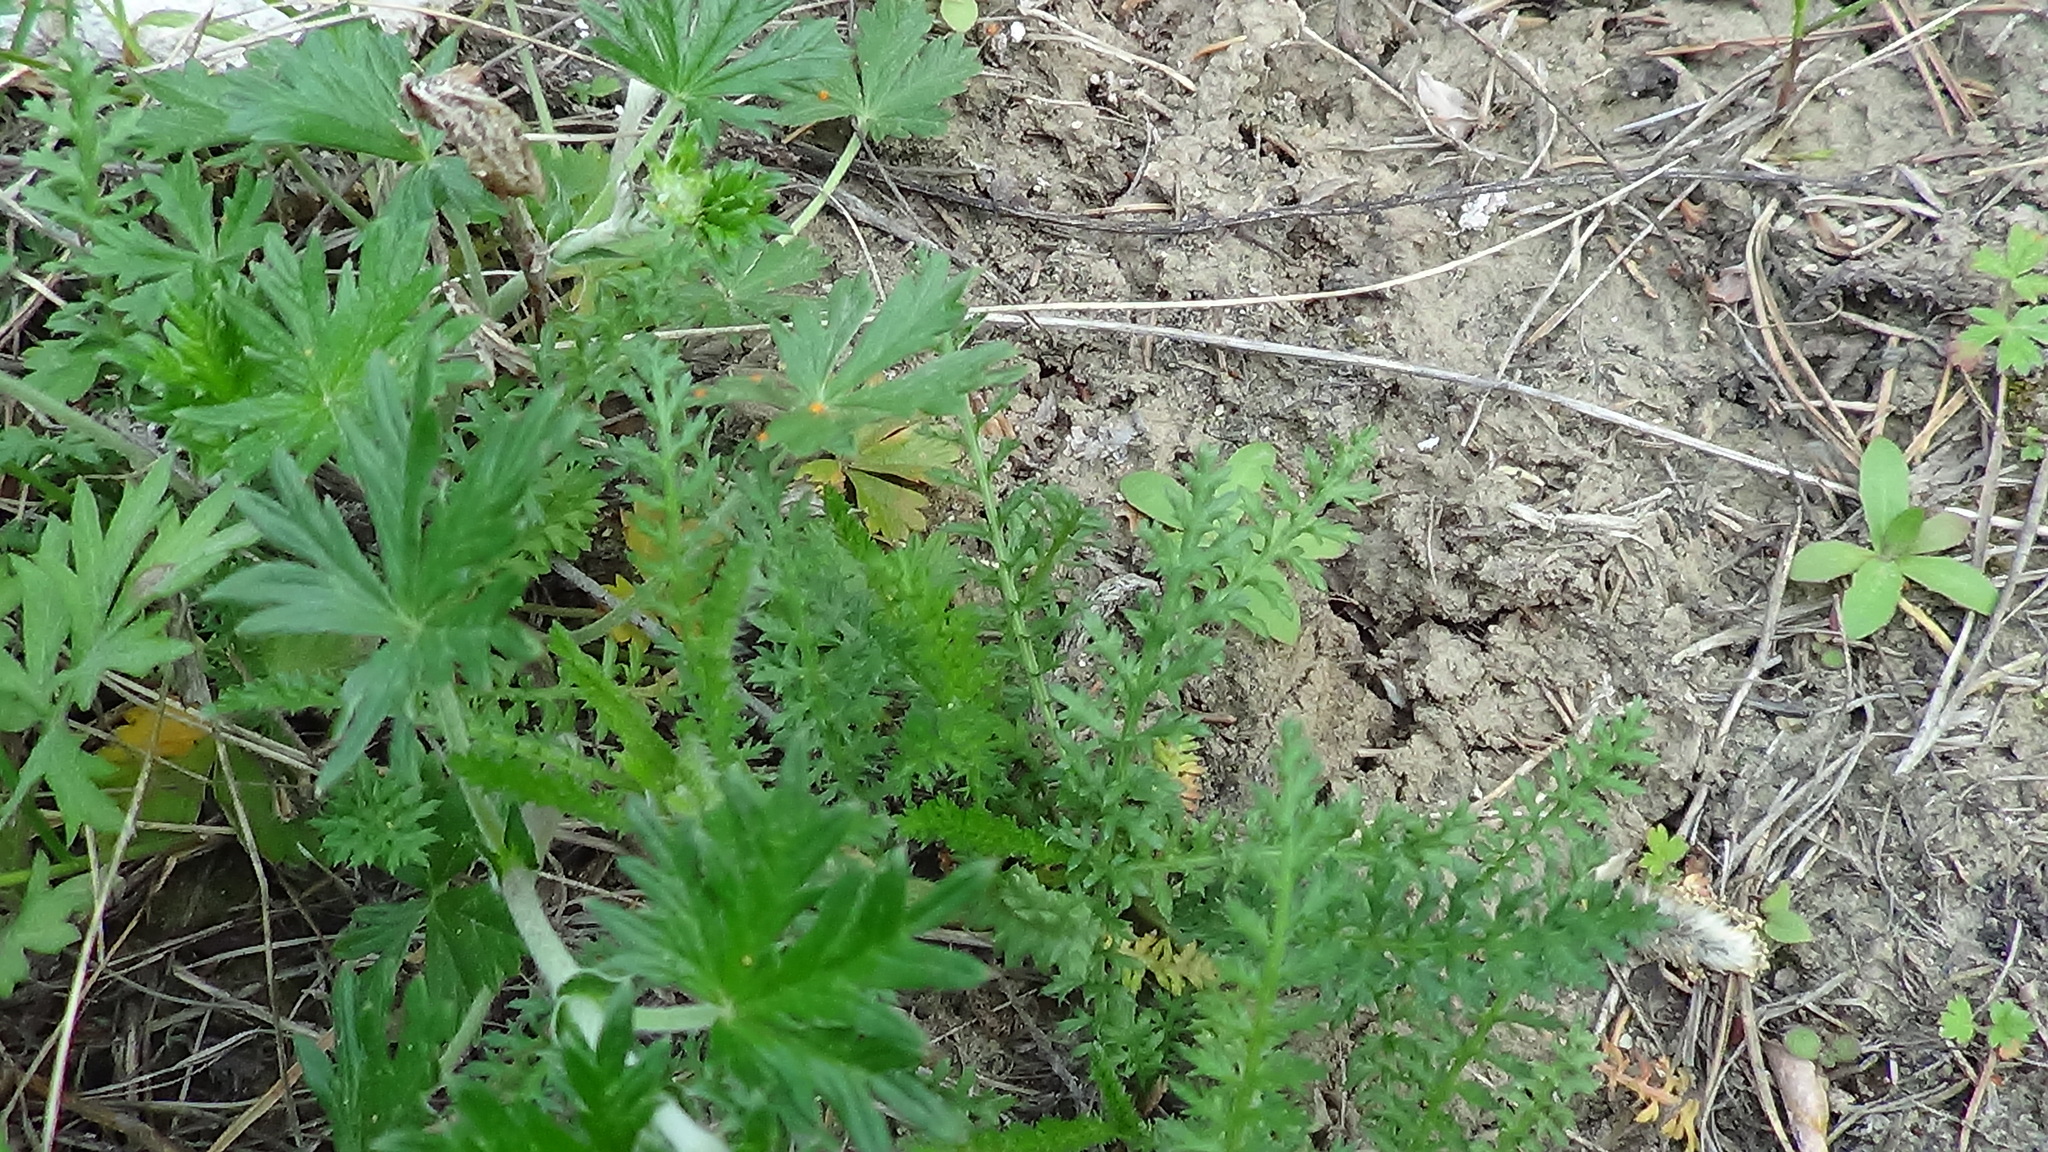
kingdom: Plantae
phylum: Tracheophyta
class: Magnoliopsida
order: Rosales
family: Rosaceae
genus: Potentilla
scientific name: Potentilla argentea
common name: Hoary cinquefoil
